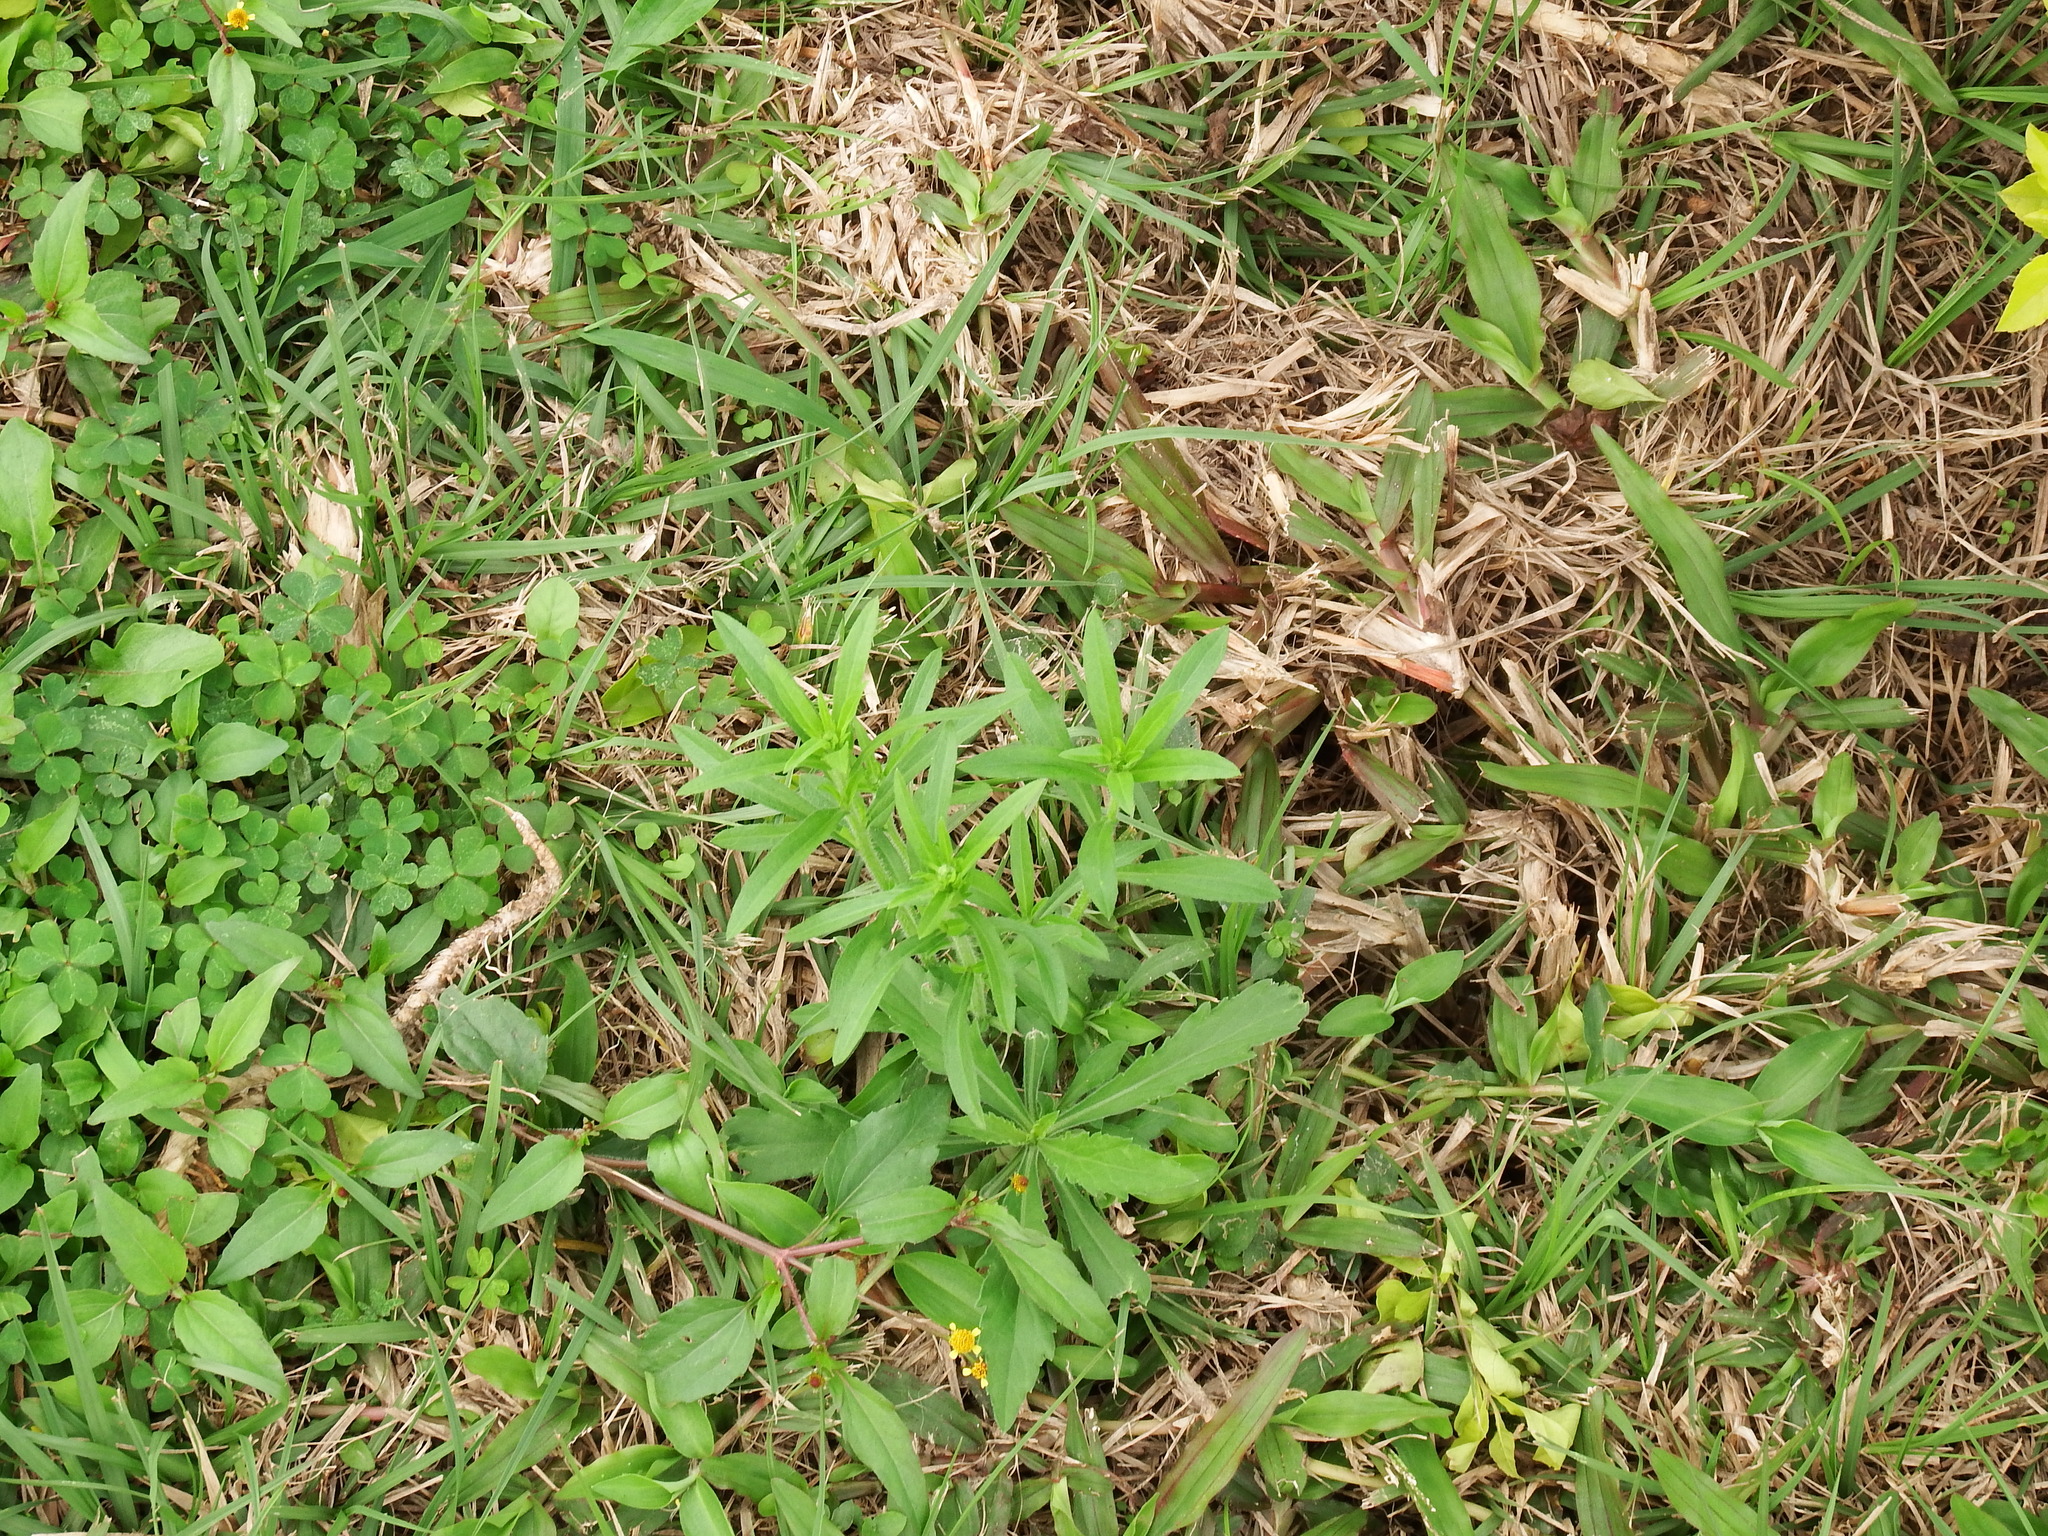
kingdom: Plantae
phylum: Tracheophyta
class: Magnoliopsida
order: Asterales
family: Asteraceae
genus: Erigeron
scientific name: Erigeron sumatrensis
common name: Daisy
